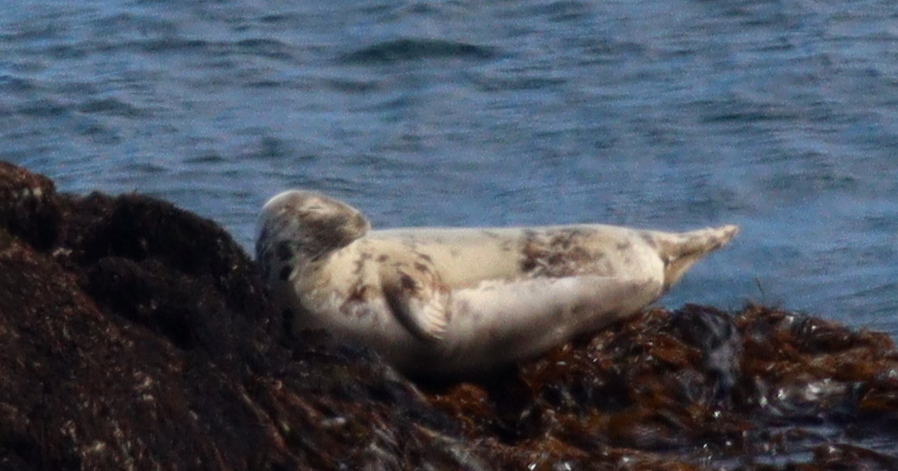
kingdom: Animalia
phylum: Chordata
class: Mammalia
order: Carnivora
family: Phocidae
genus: Halichoerus
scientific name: Halichoerus grypus
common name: Grey seal
